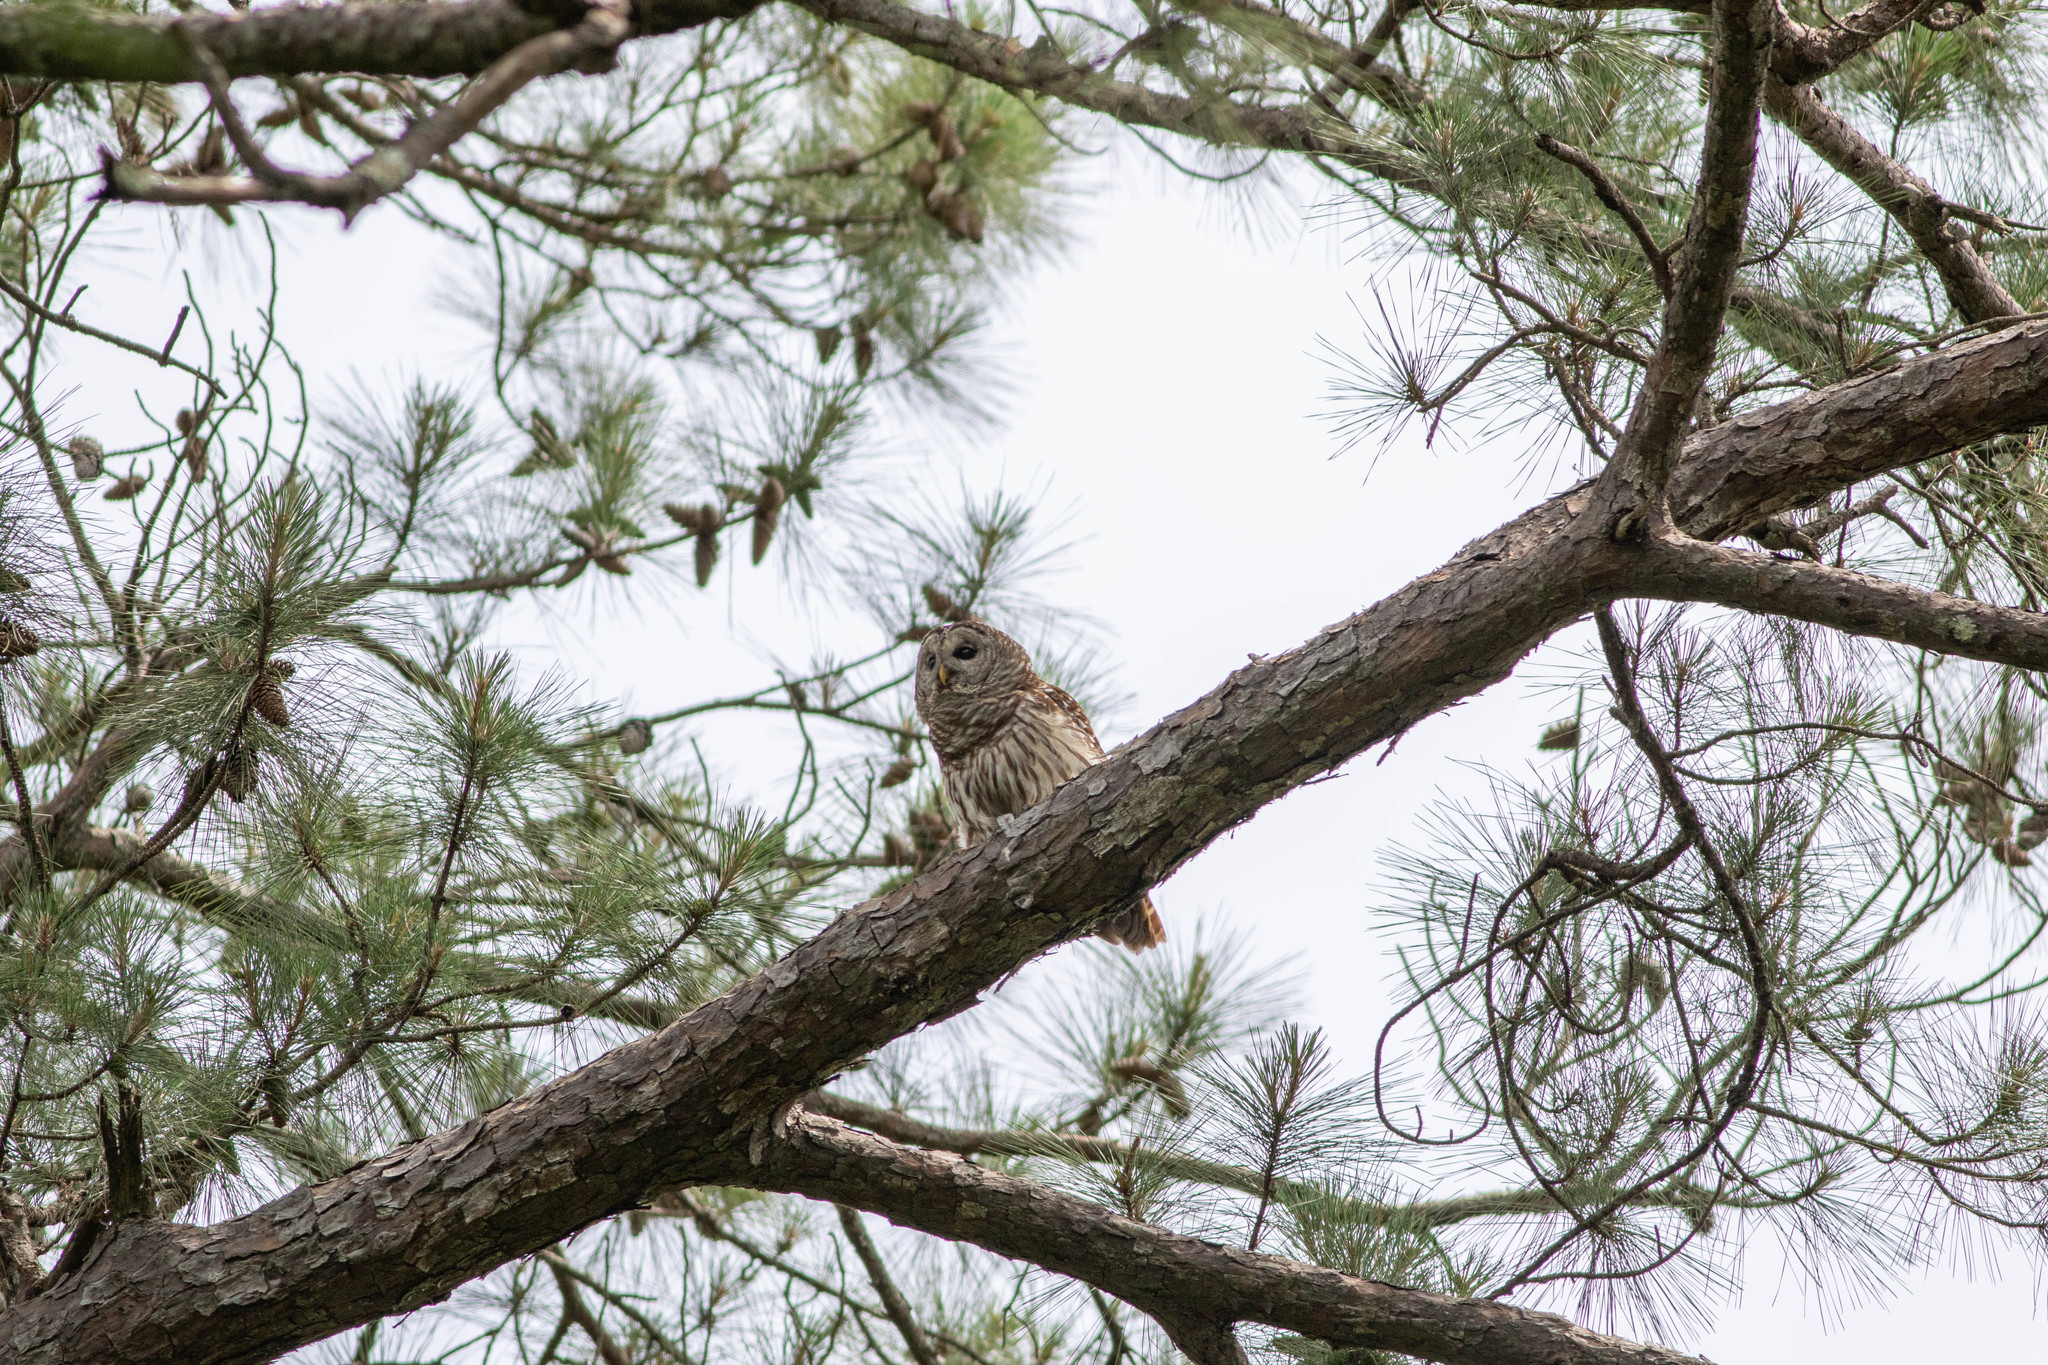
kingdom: Animalia
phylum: Chordata
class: Aves
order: Strigiformes
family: Strigidae
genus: Strix
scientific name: Strix varia
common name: Barred owl
